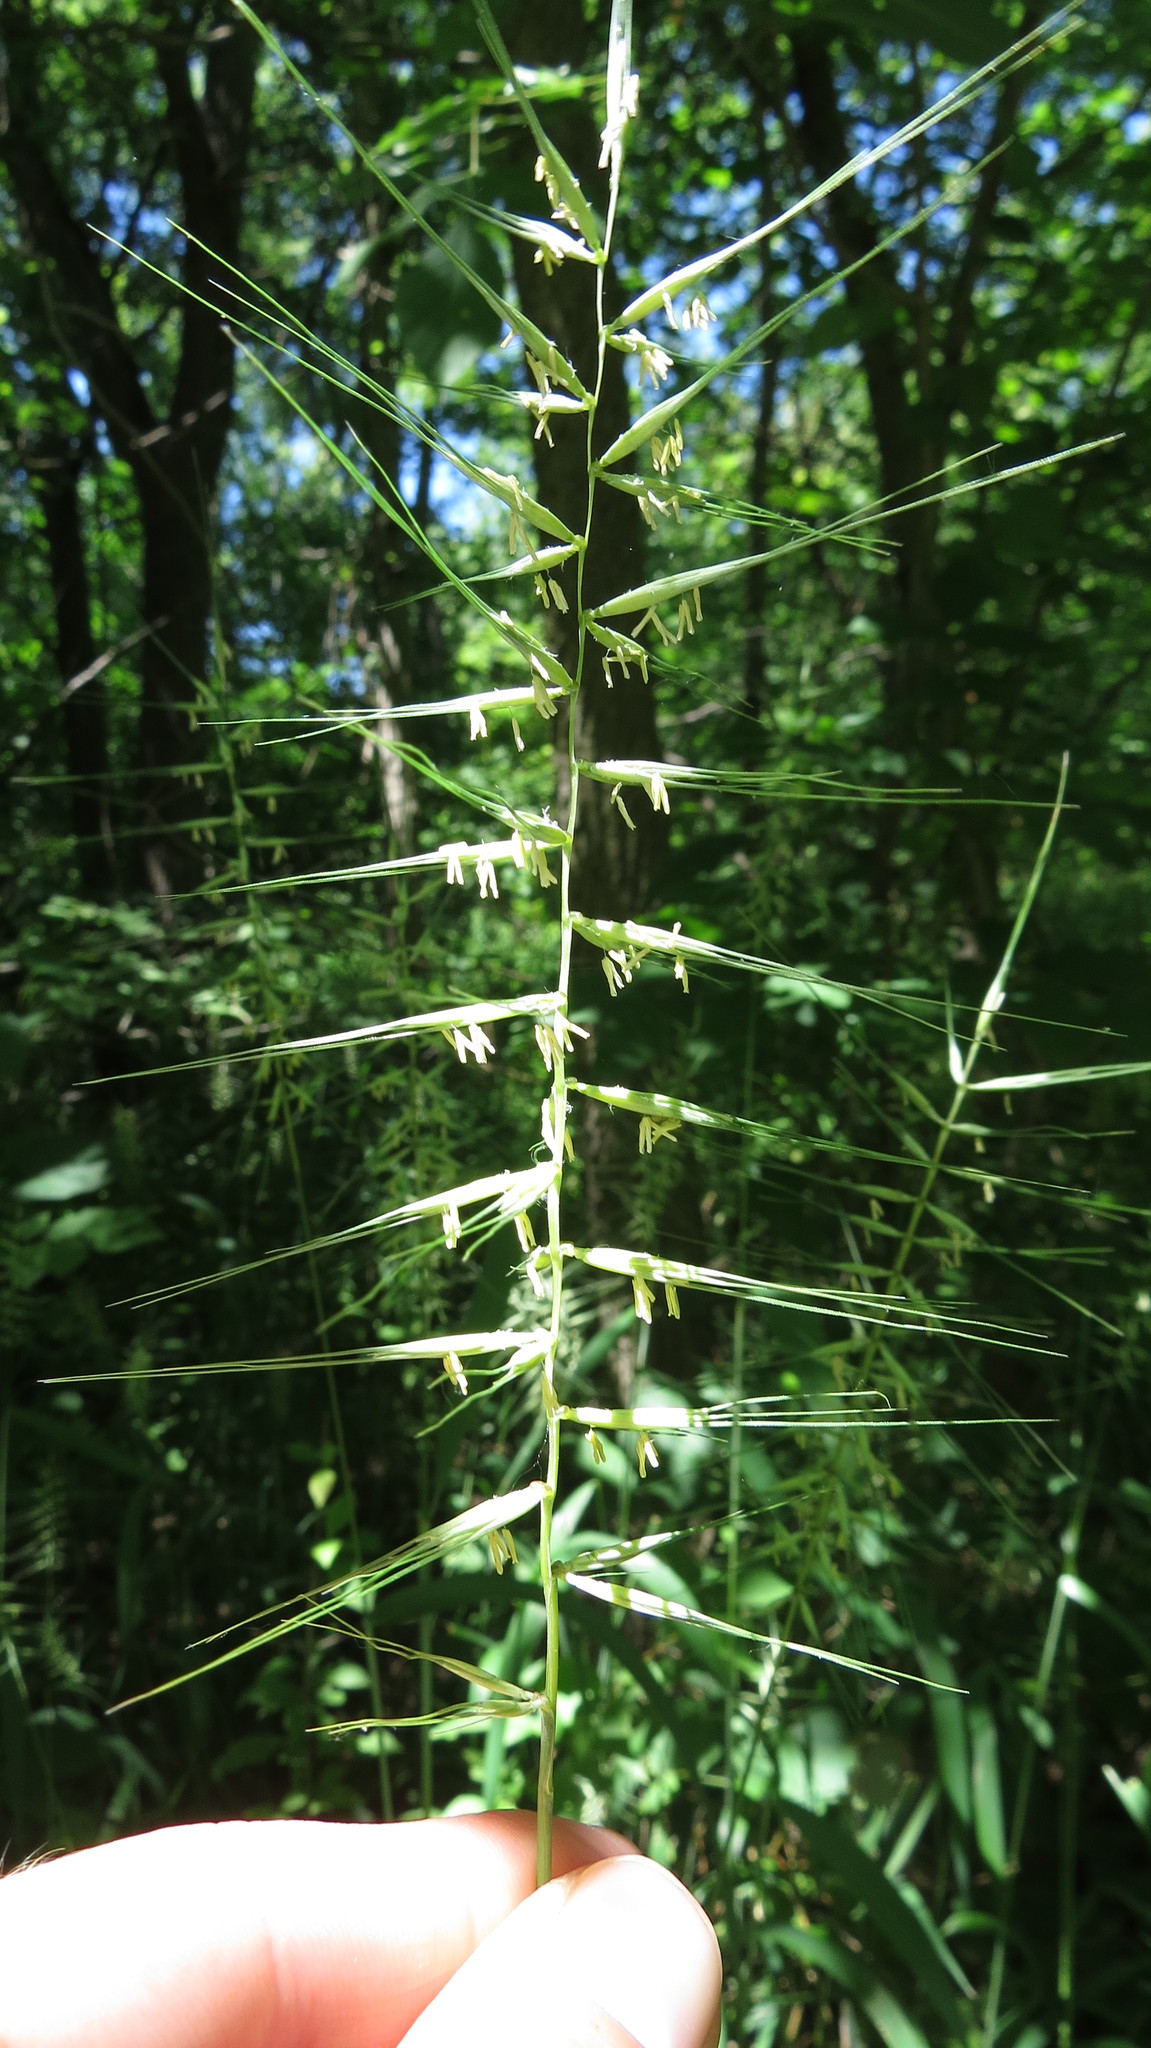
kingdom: Plantae
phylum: Tracheophyta
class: Liliopsida
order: Poales
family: Poaceae
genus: Elymus
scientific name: Elymus hystrix
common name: Bottlebrush grass
